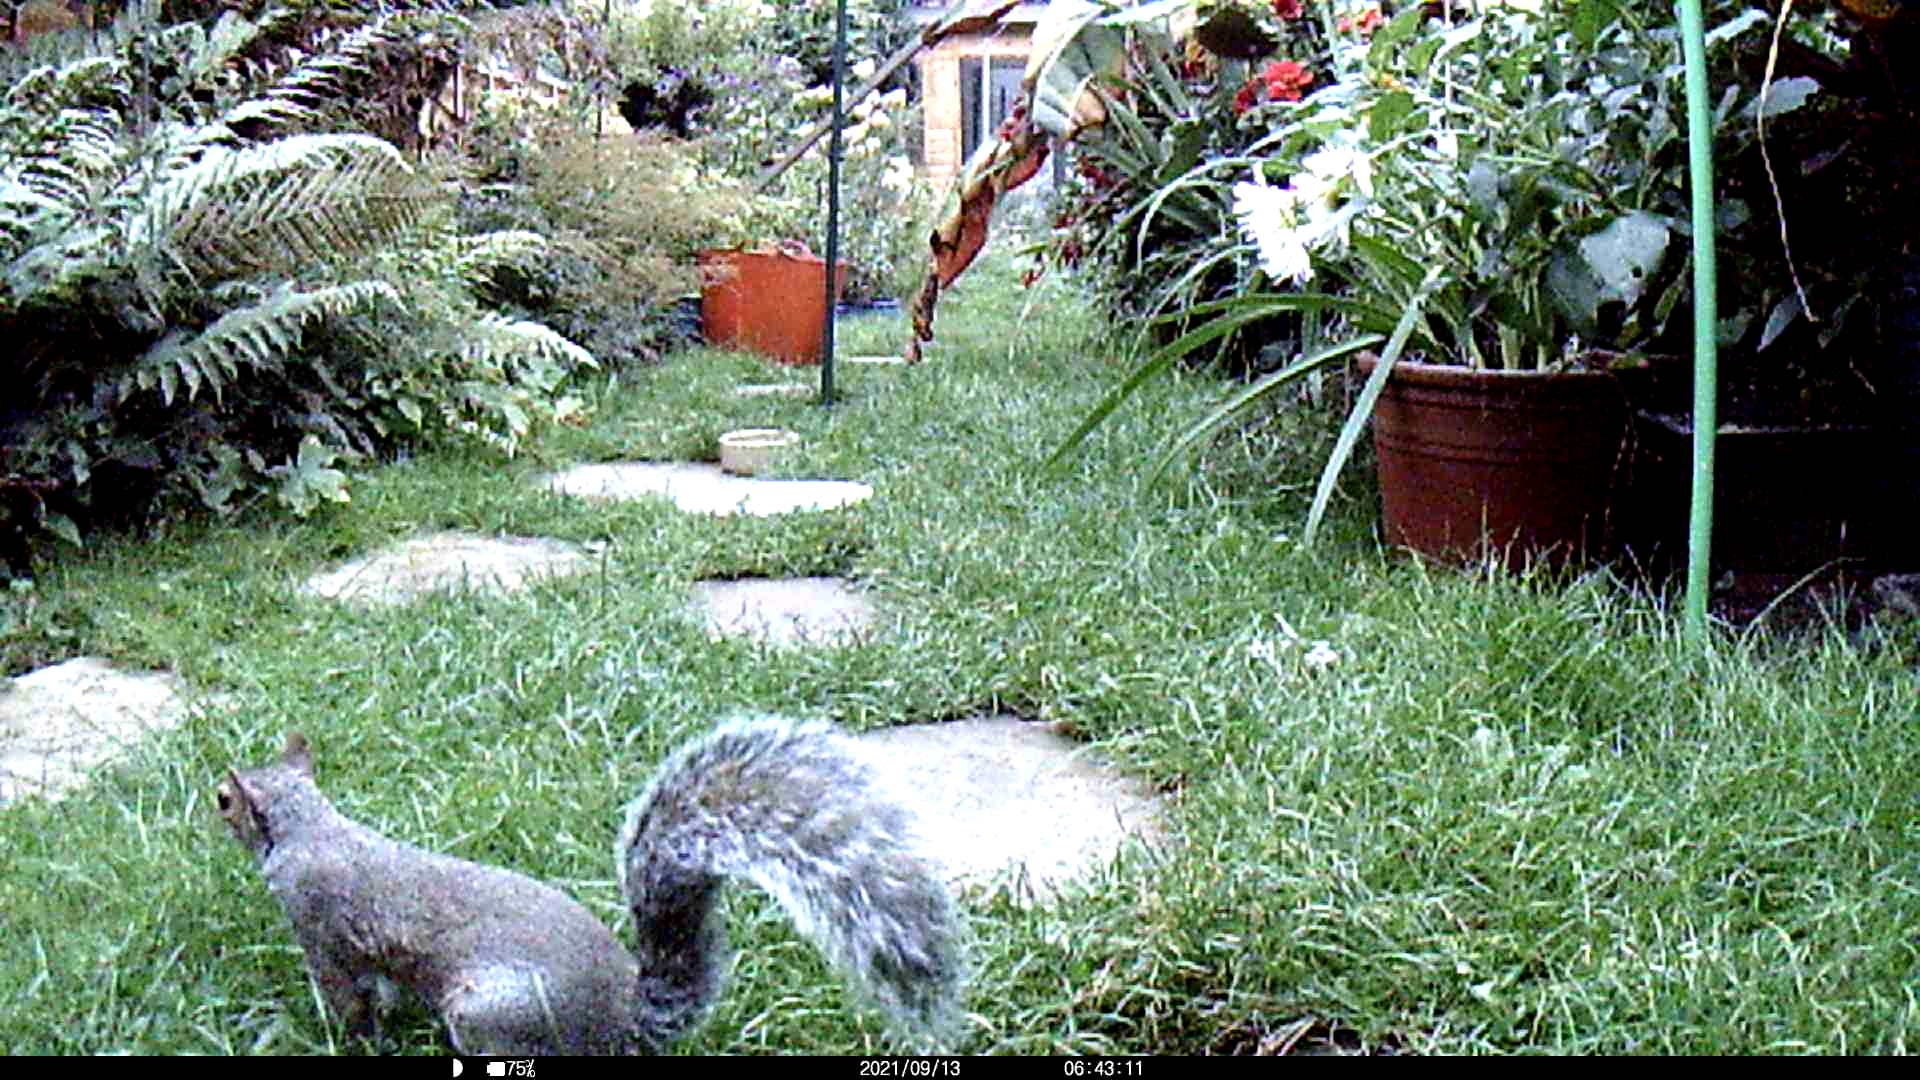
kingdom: Animalia
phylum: Chordata
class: Mammalia
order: Rodentia
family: Sciuridae
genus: Sciurus
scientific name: Sciurus carolinensis
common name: Eastern gray squirrel
